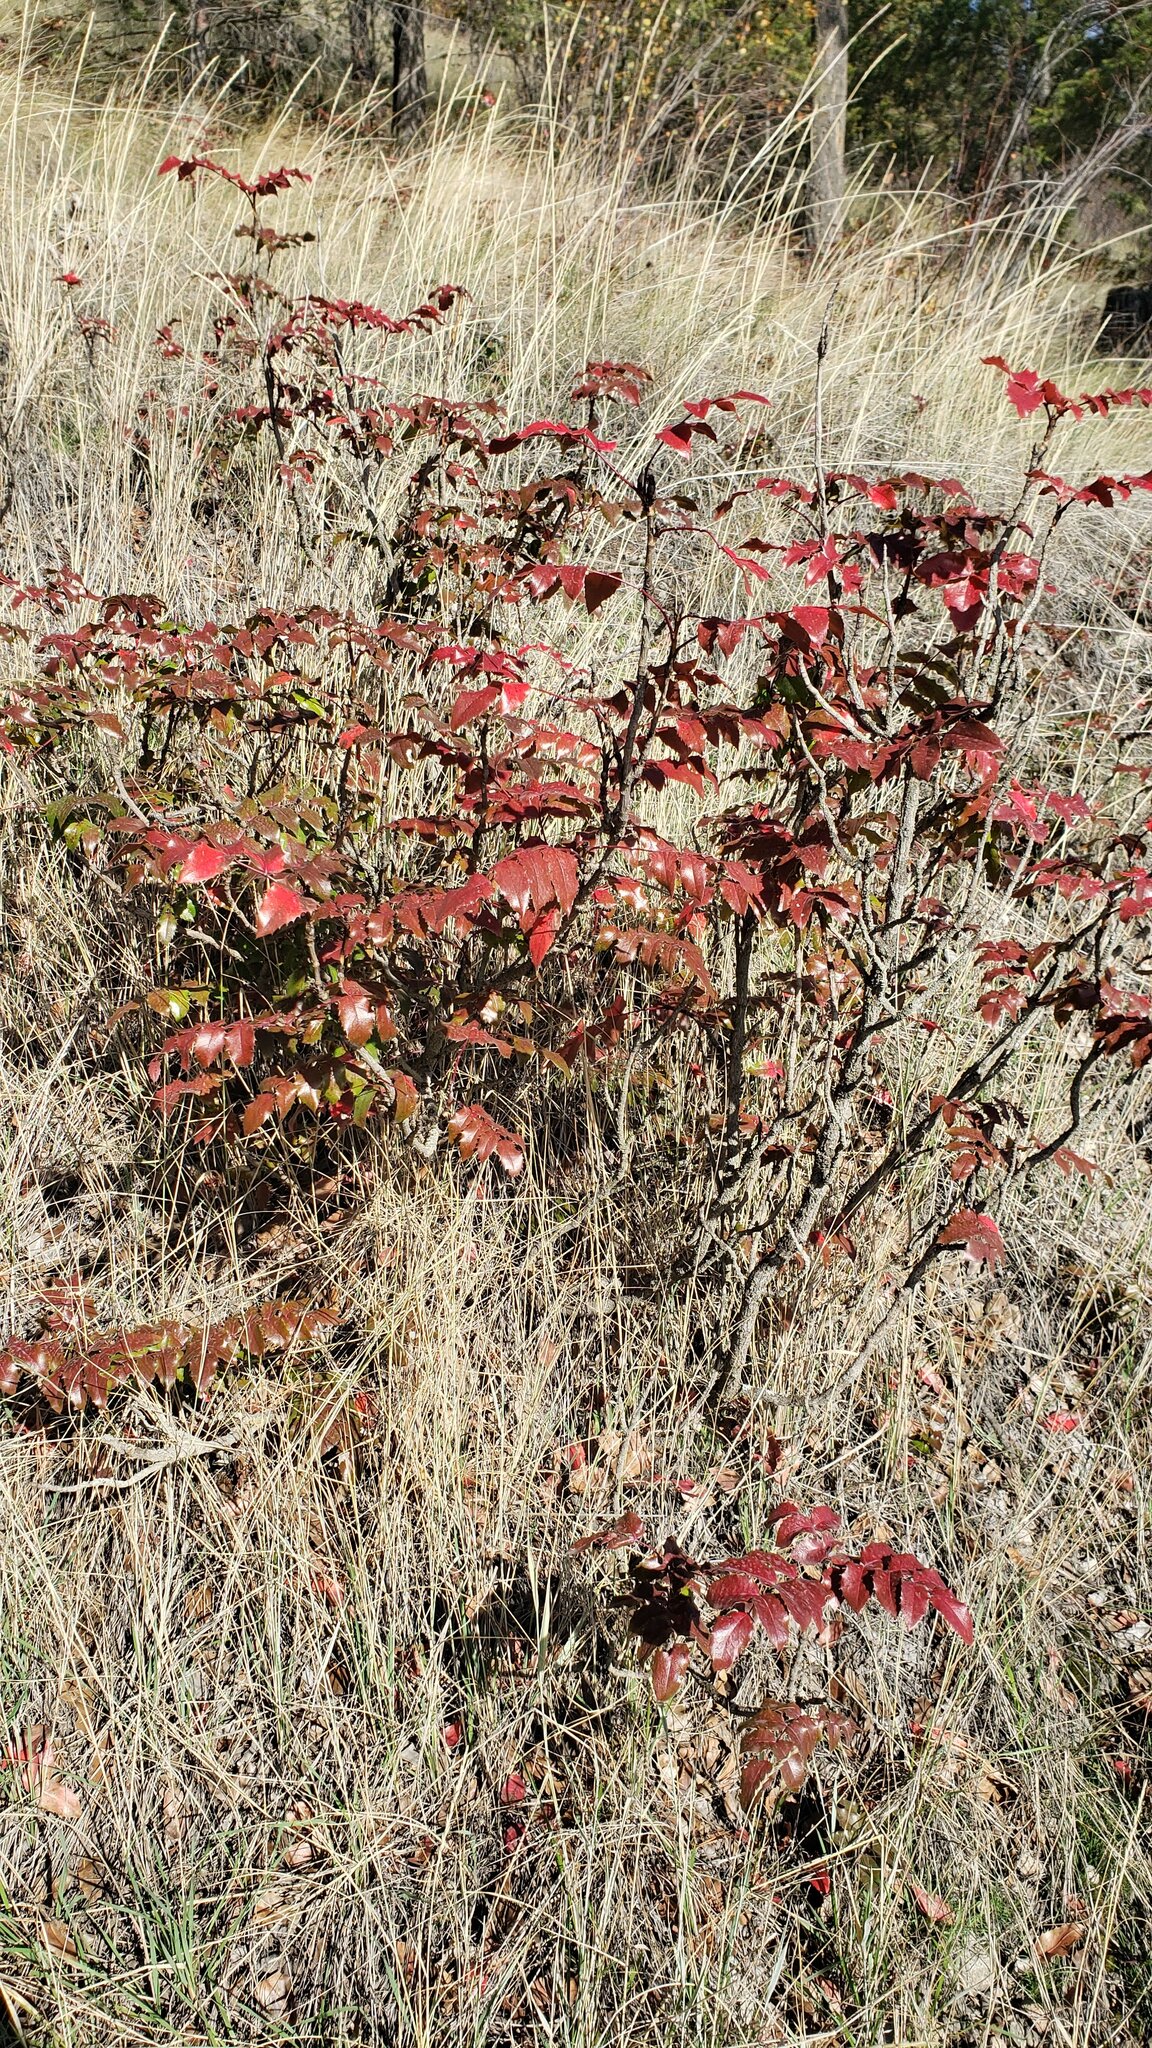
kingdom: Plantae
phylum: Tracheophyta
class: Magnoliopsida
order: Ranunculales
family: Berberidaceae
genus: Mahonia
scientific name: Mahonia aquifolium
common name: Oregon-grape
